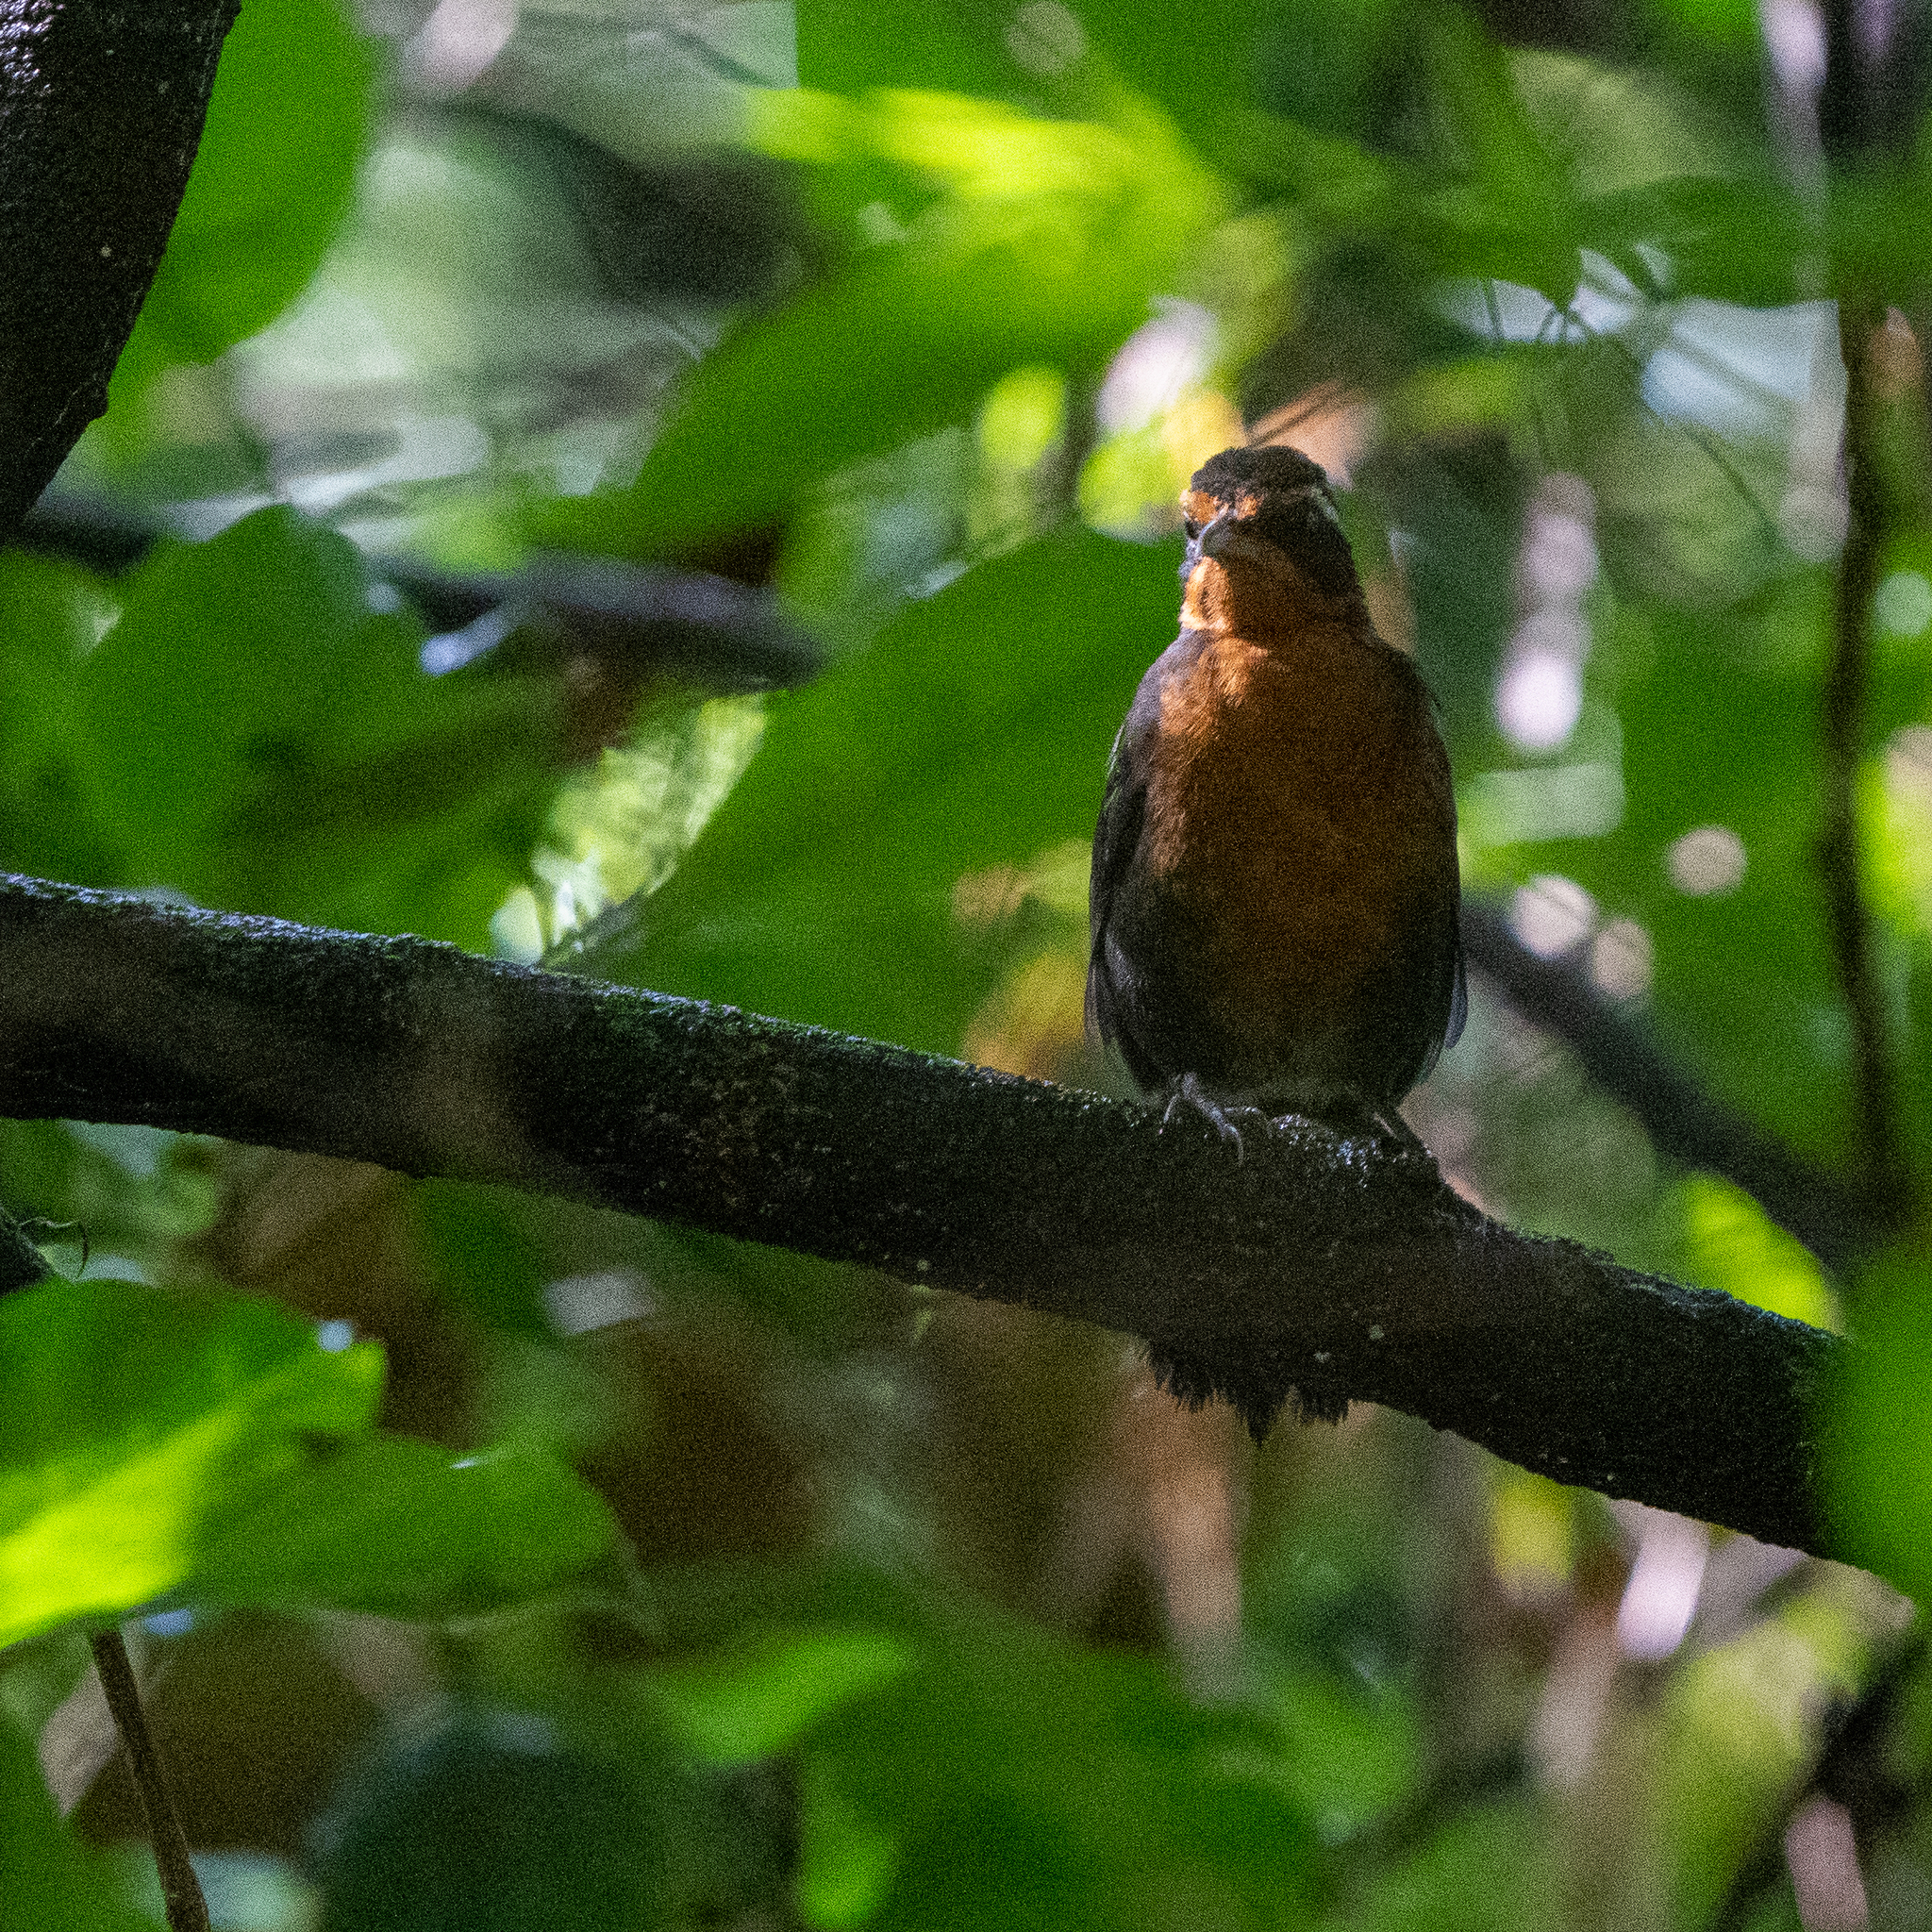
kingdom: Animalia
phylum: Chordata
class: Aves
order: Passeriformes
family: Rhodinocichlidae
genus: Rhodinocichla
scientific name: Rhodinocichla rosea
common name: Rosy thrush-tanager
